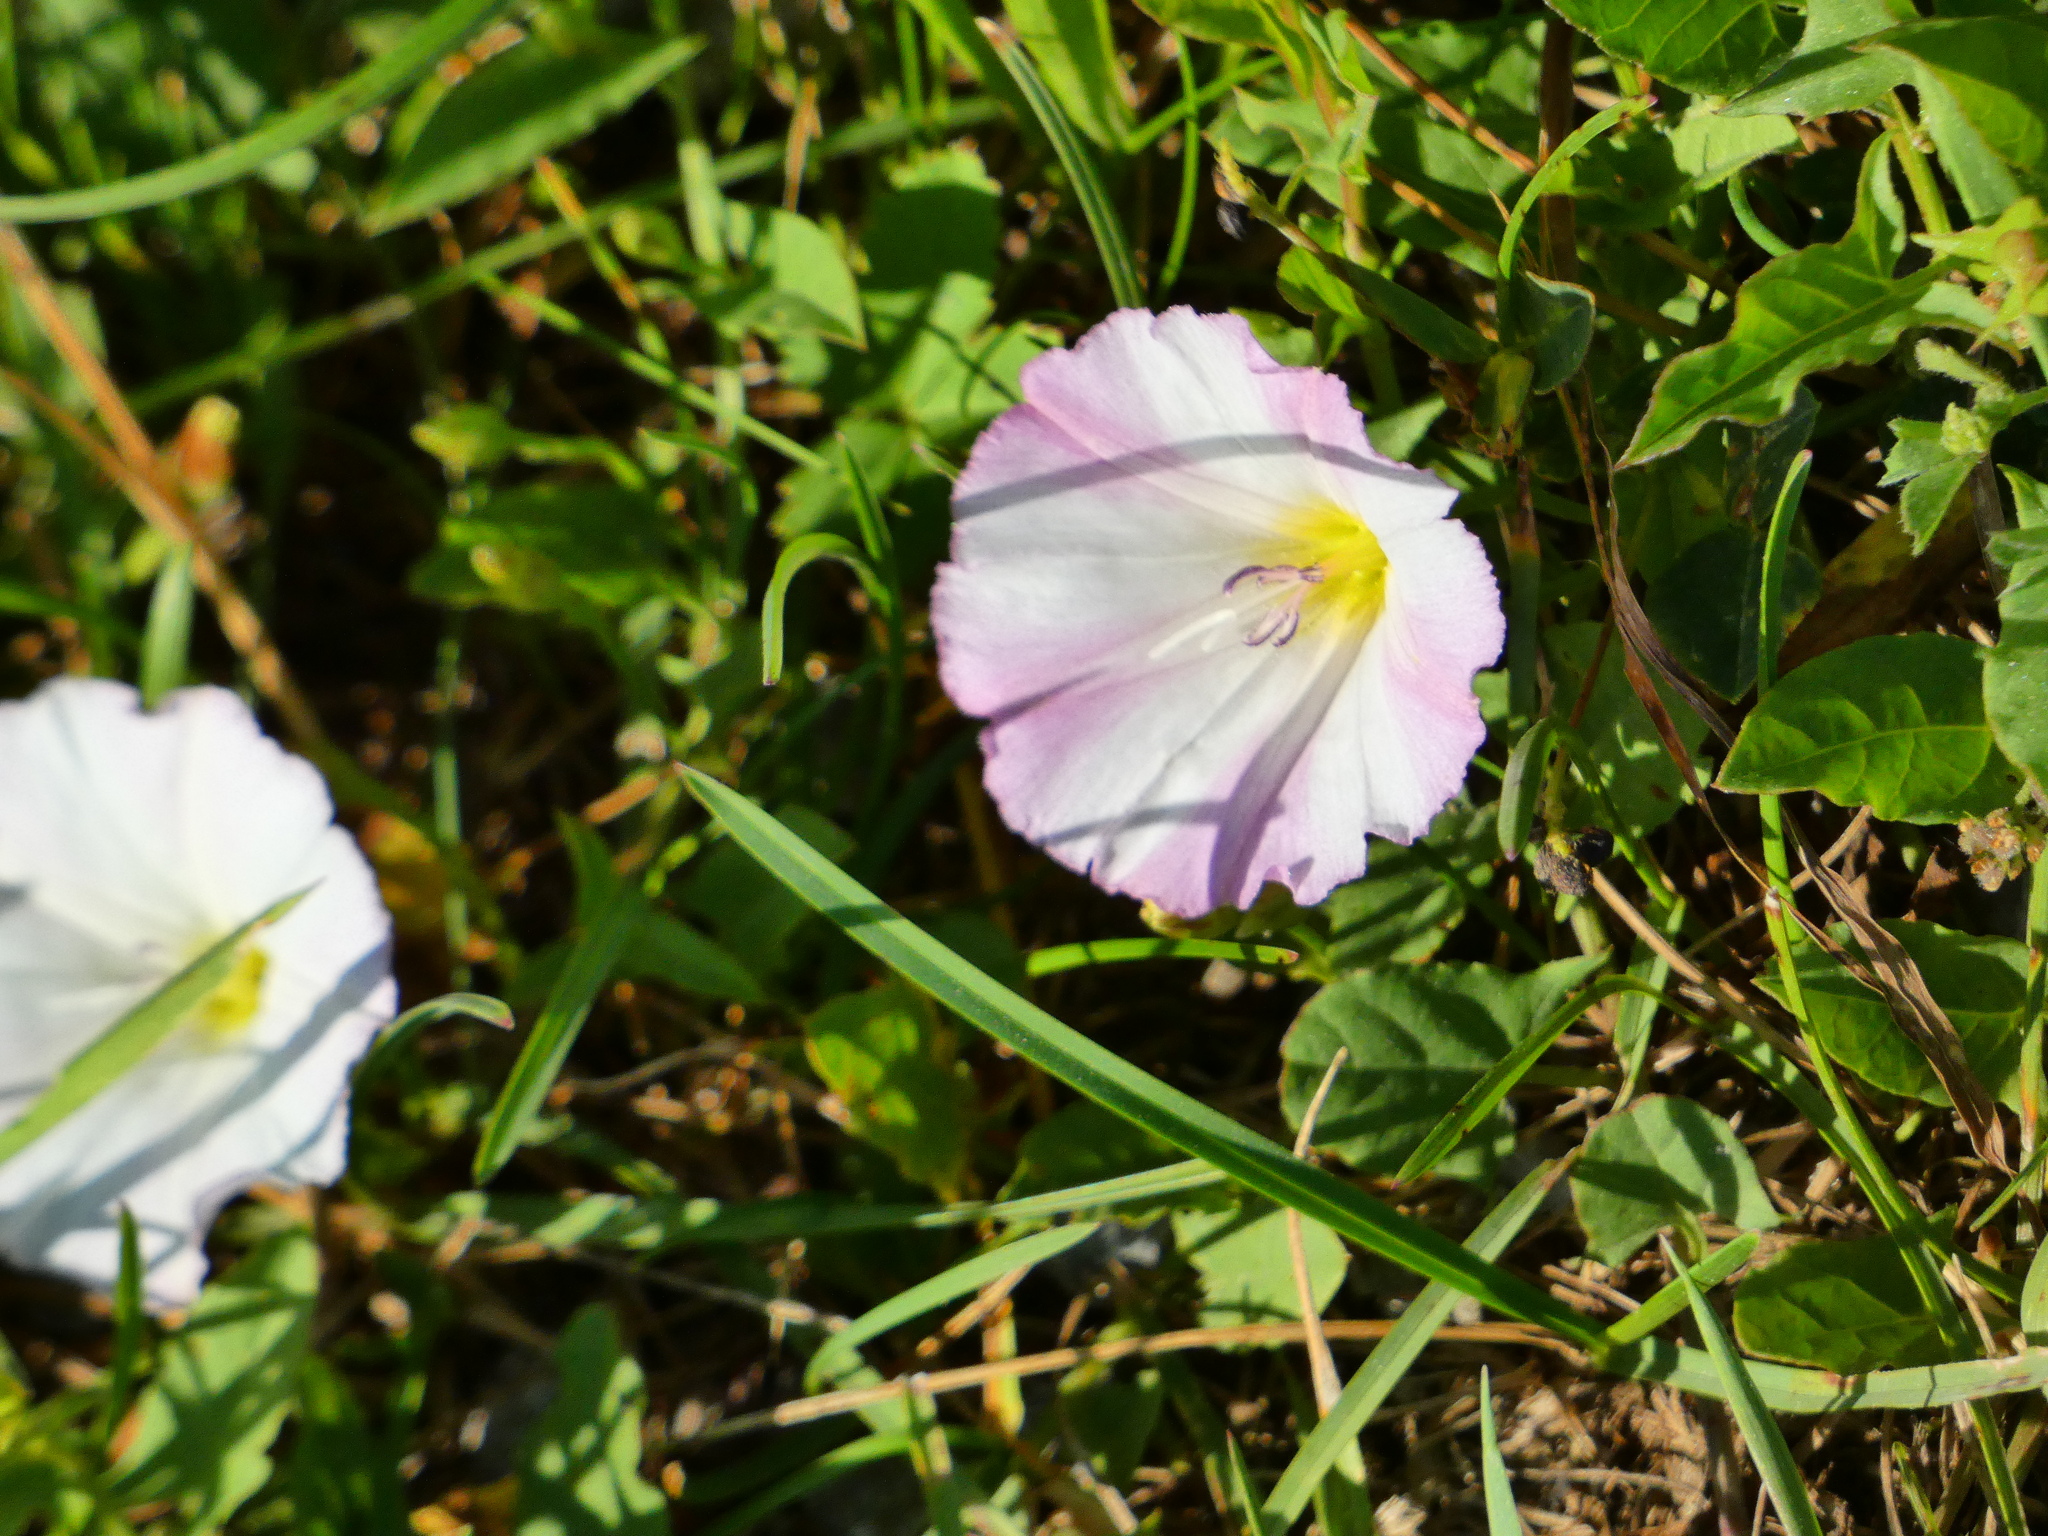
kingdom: Plantae
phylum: Tracheophyta
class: Magnoliopsida
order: Solanales
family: Convolvulaceae
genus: Convolvulus
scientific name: Convolvulus arvensis
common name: Field bindweed
